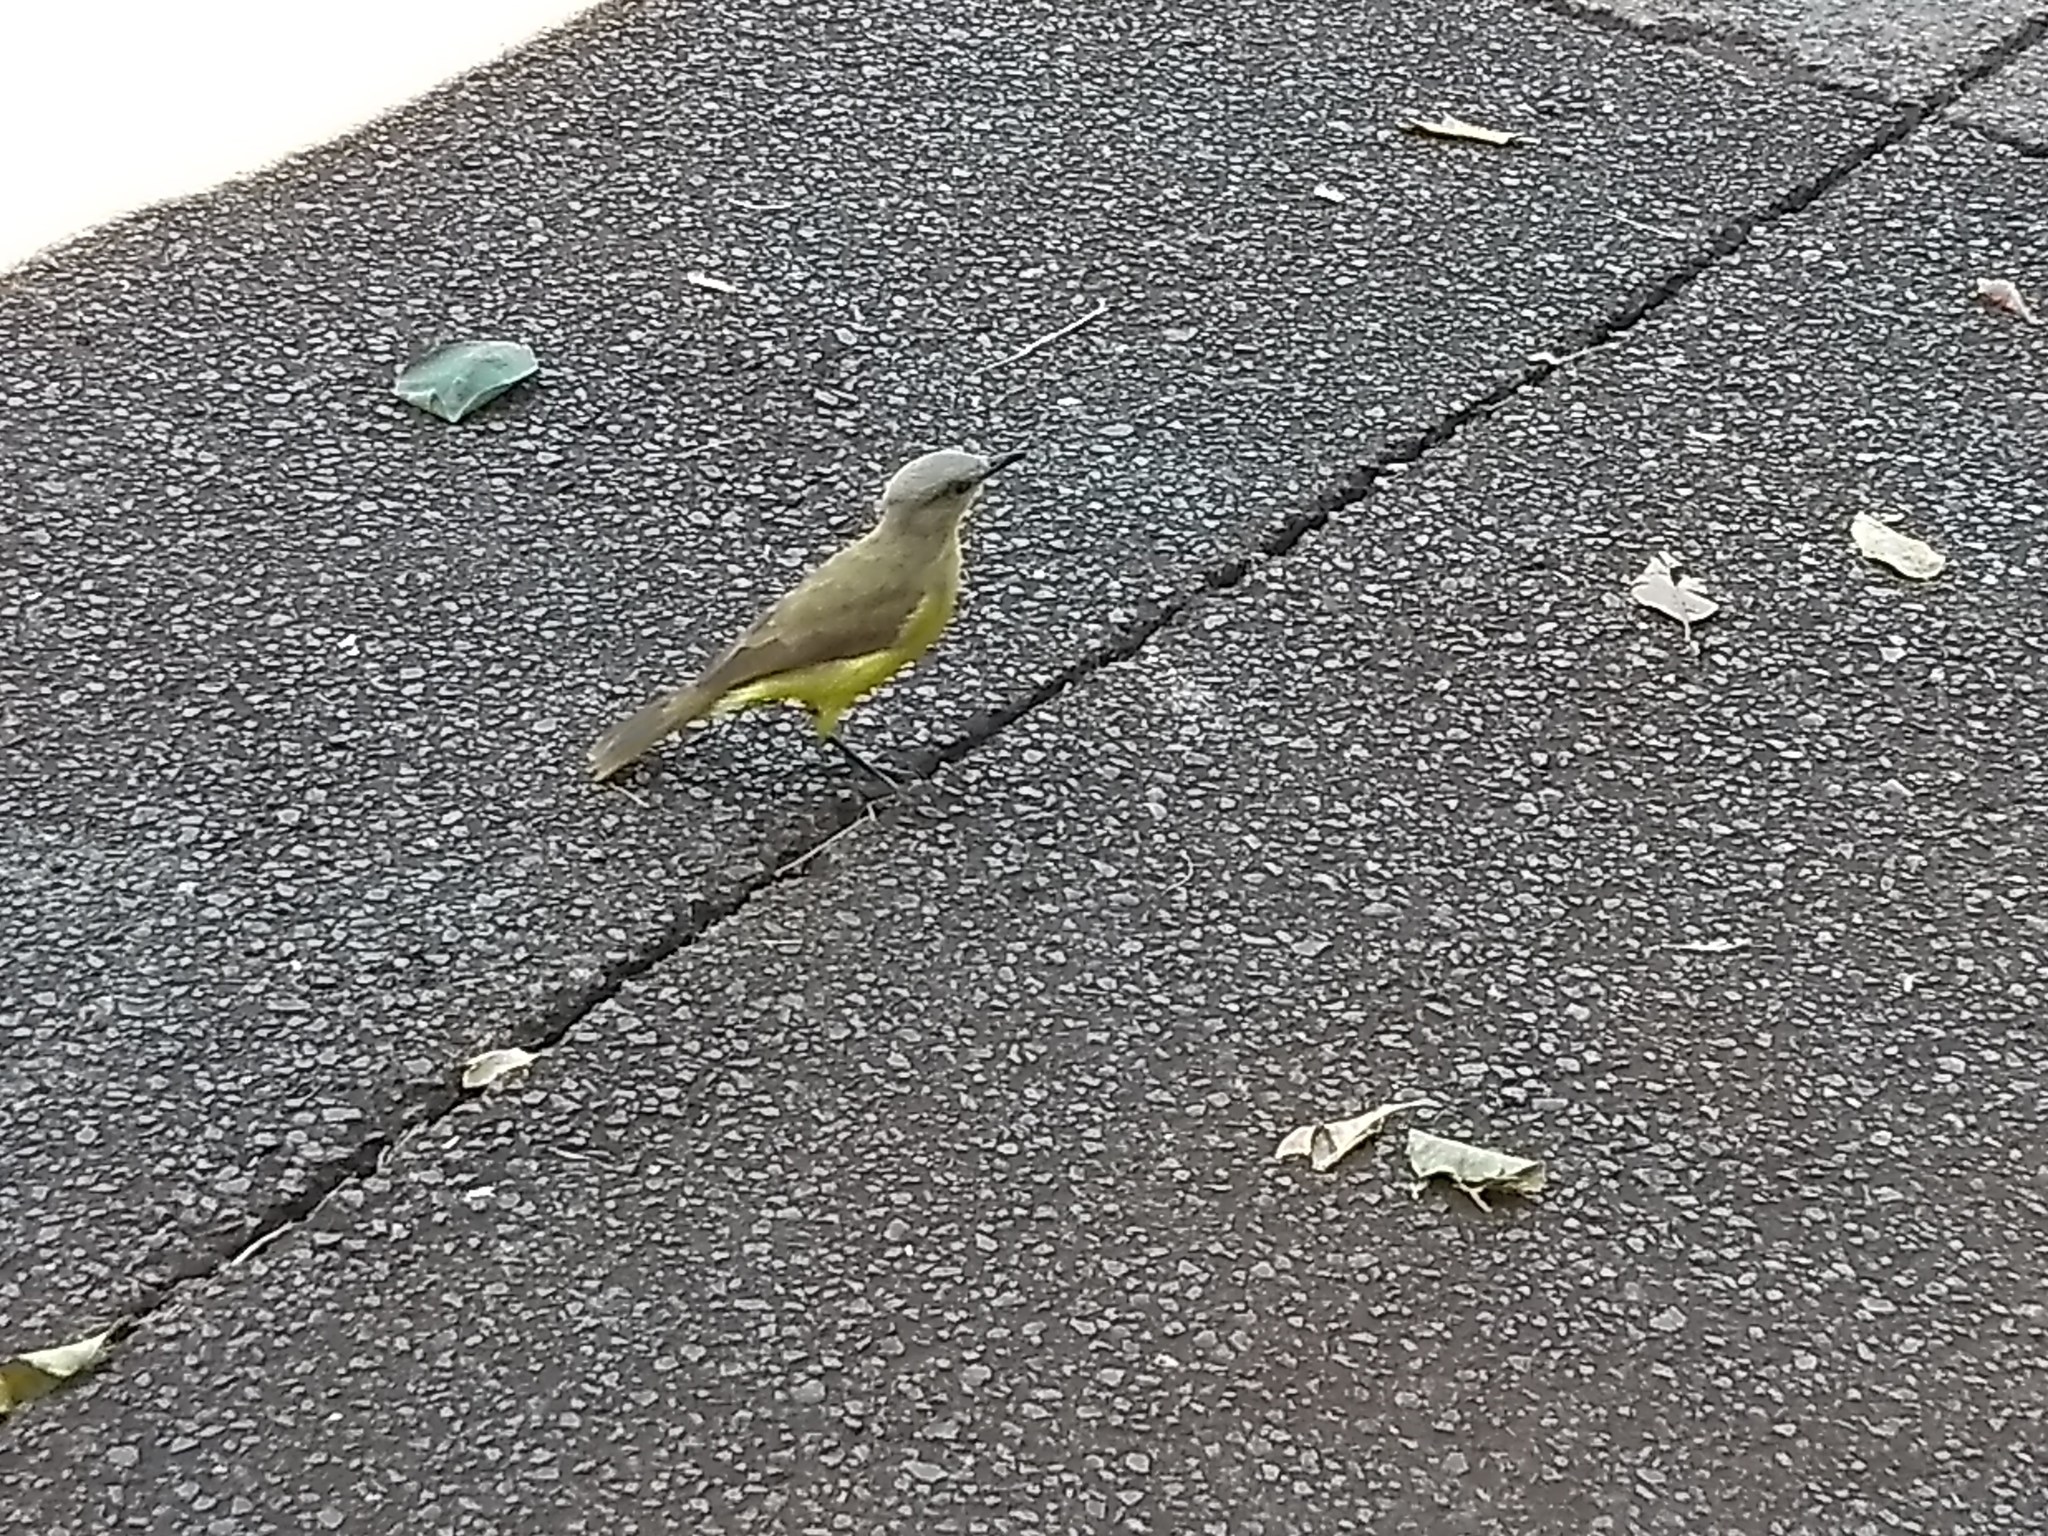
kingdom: Animalia
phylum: Chordata
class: Aves
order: Passeriformes
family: Tyrannidae
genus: Machetornis
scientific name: Machetornis rixosa
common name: Cattle tyrant
